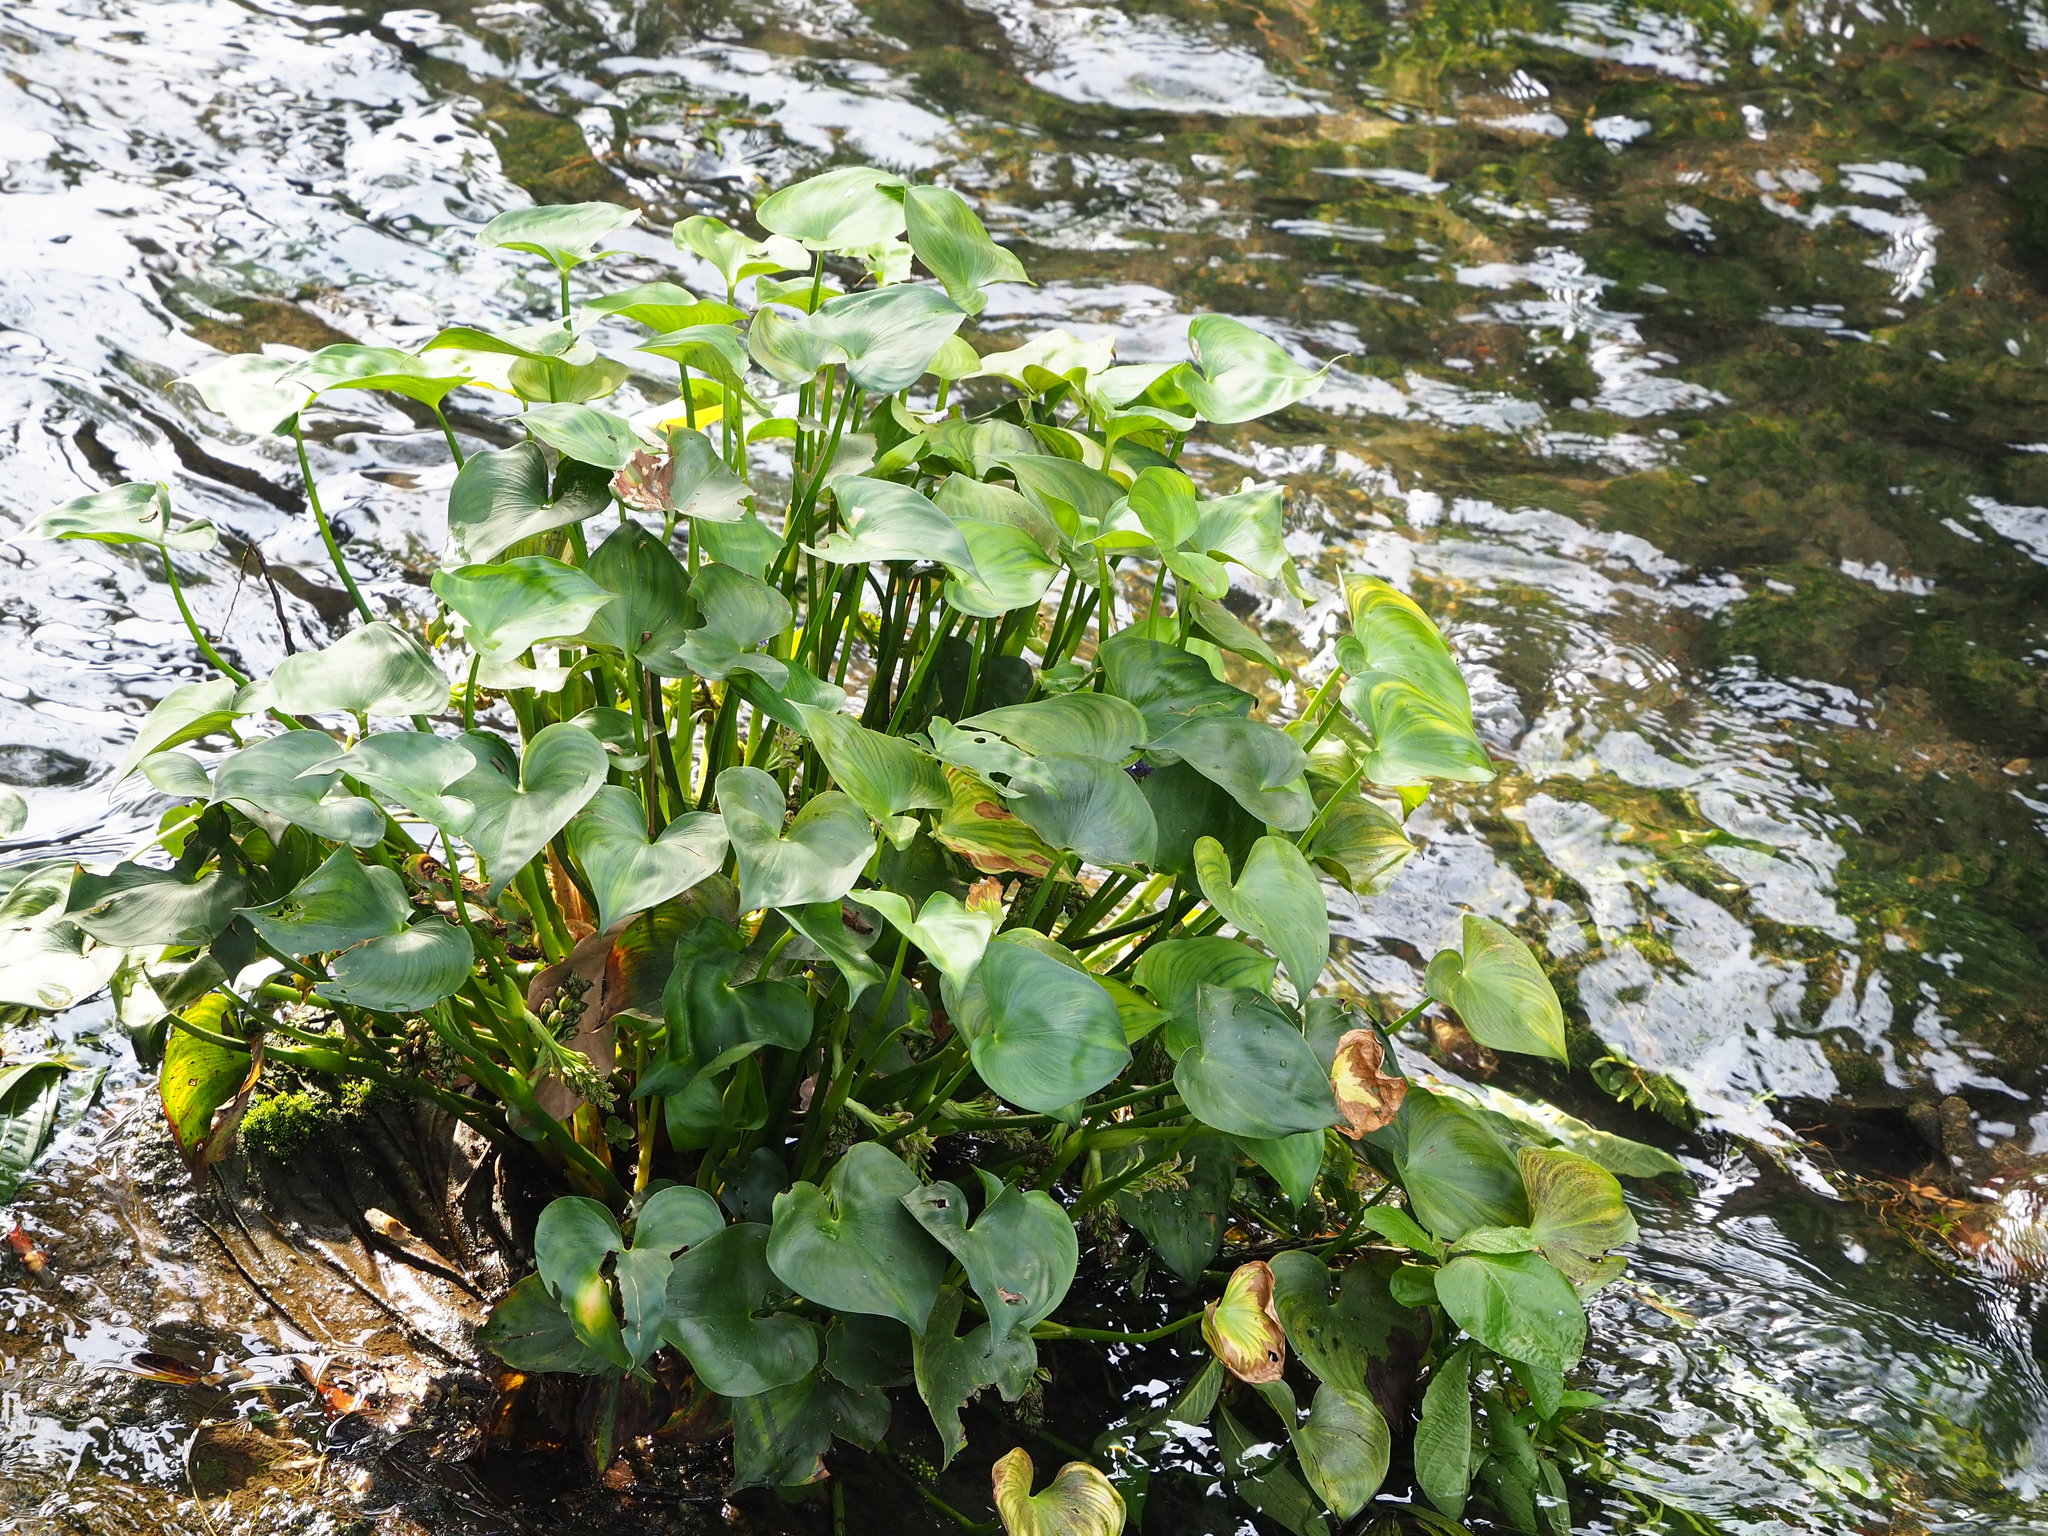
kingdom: Plantae
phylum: Tracheophyta
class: Liliopsida
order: Commelinales
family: Pontederiaceae
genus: Pontederia
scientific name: Pontederia vaginalis
